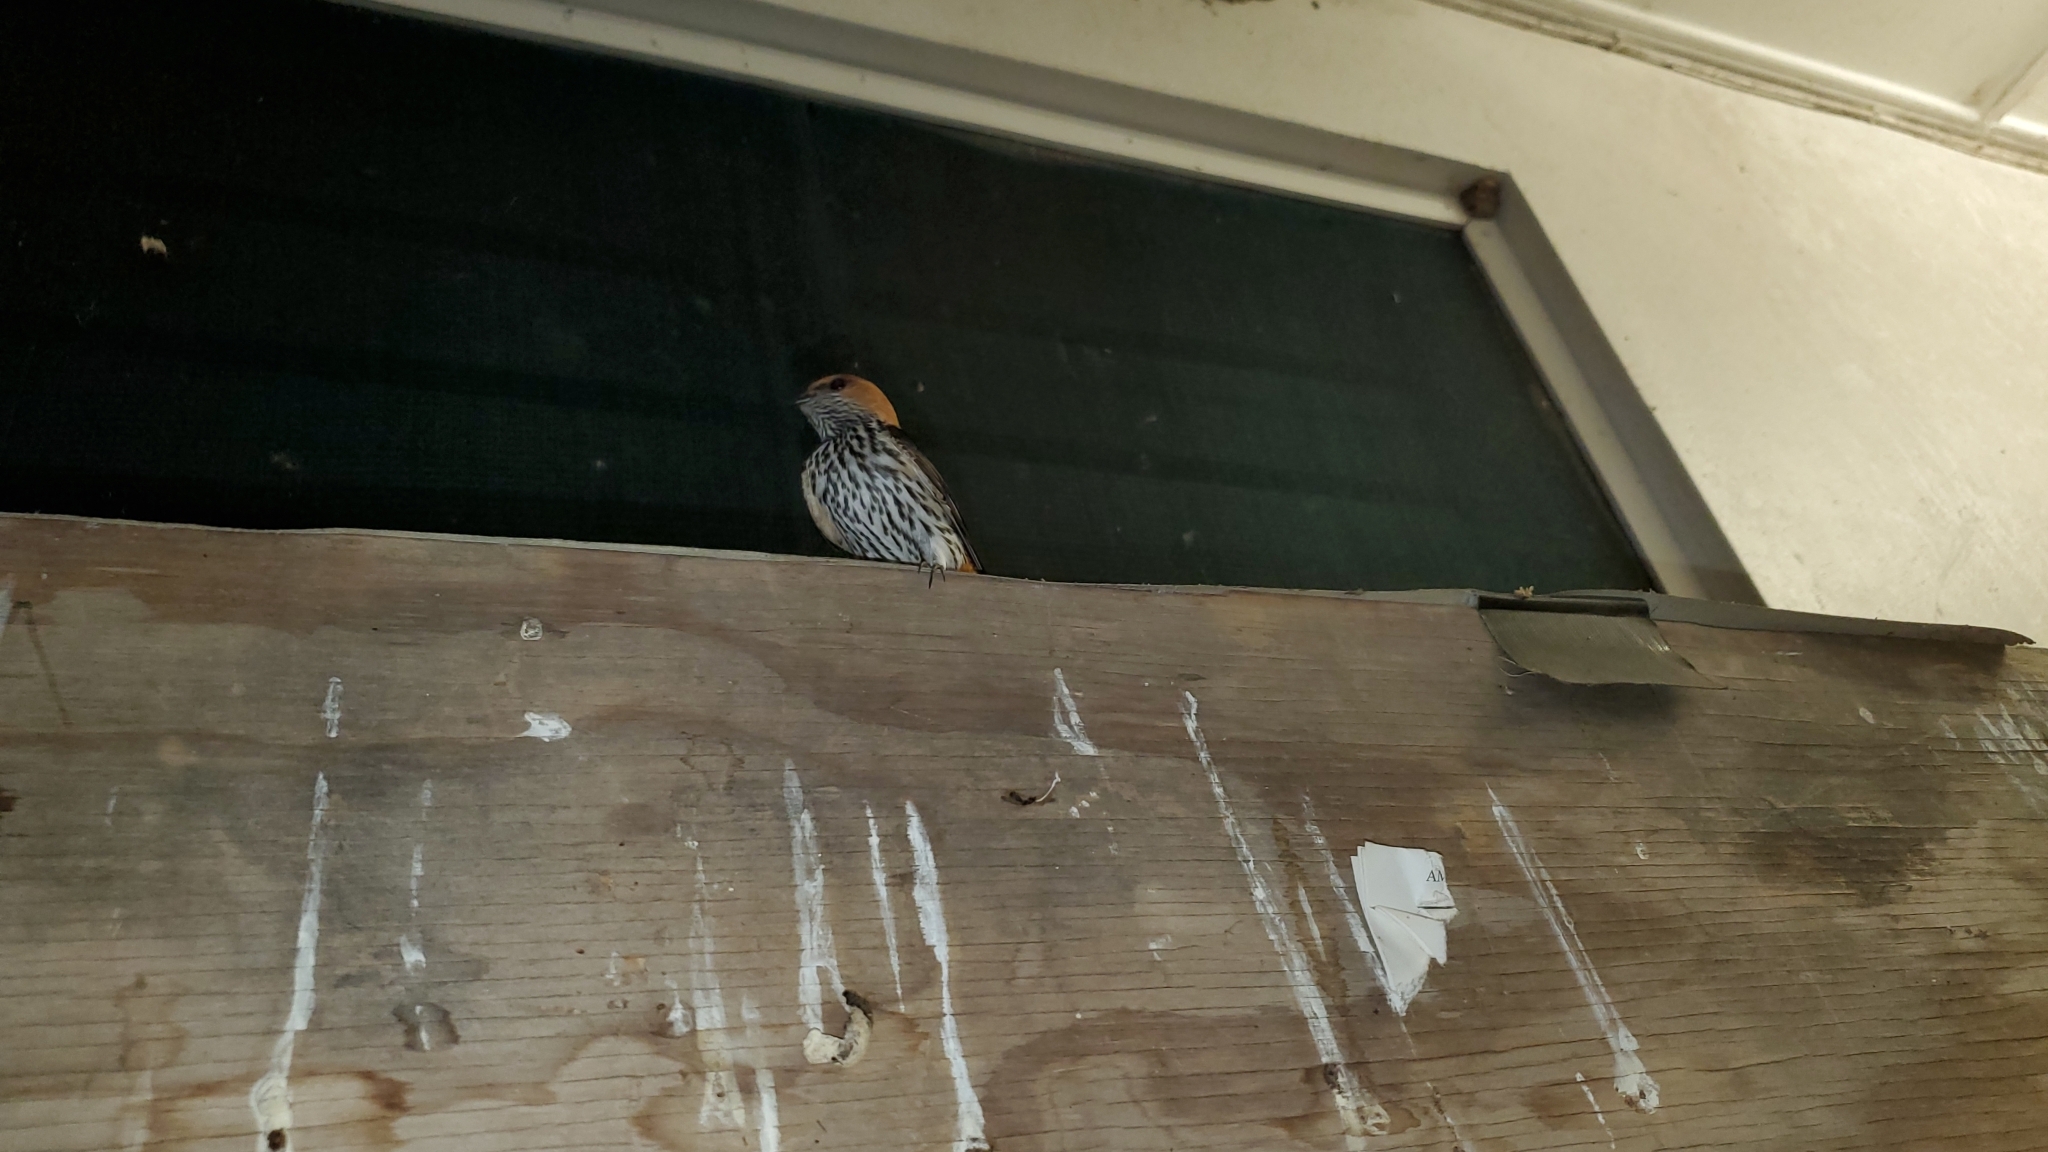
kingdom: Animalia
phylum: Chordata
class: Aves
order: Passeriformes
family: Hirundinidae
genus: Cecropis
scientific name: Cecropis abyssinica
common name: Lesser striped-swallow
